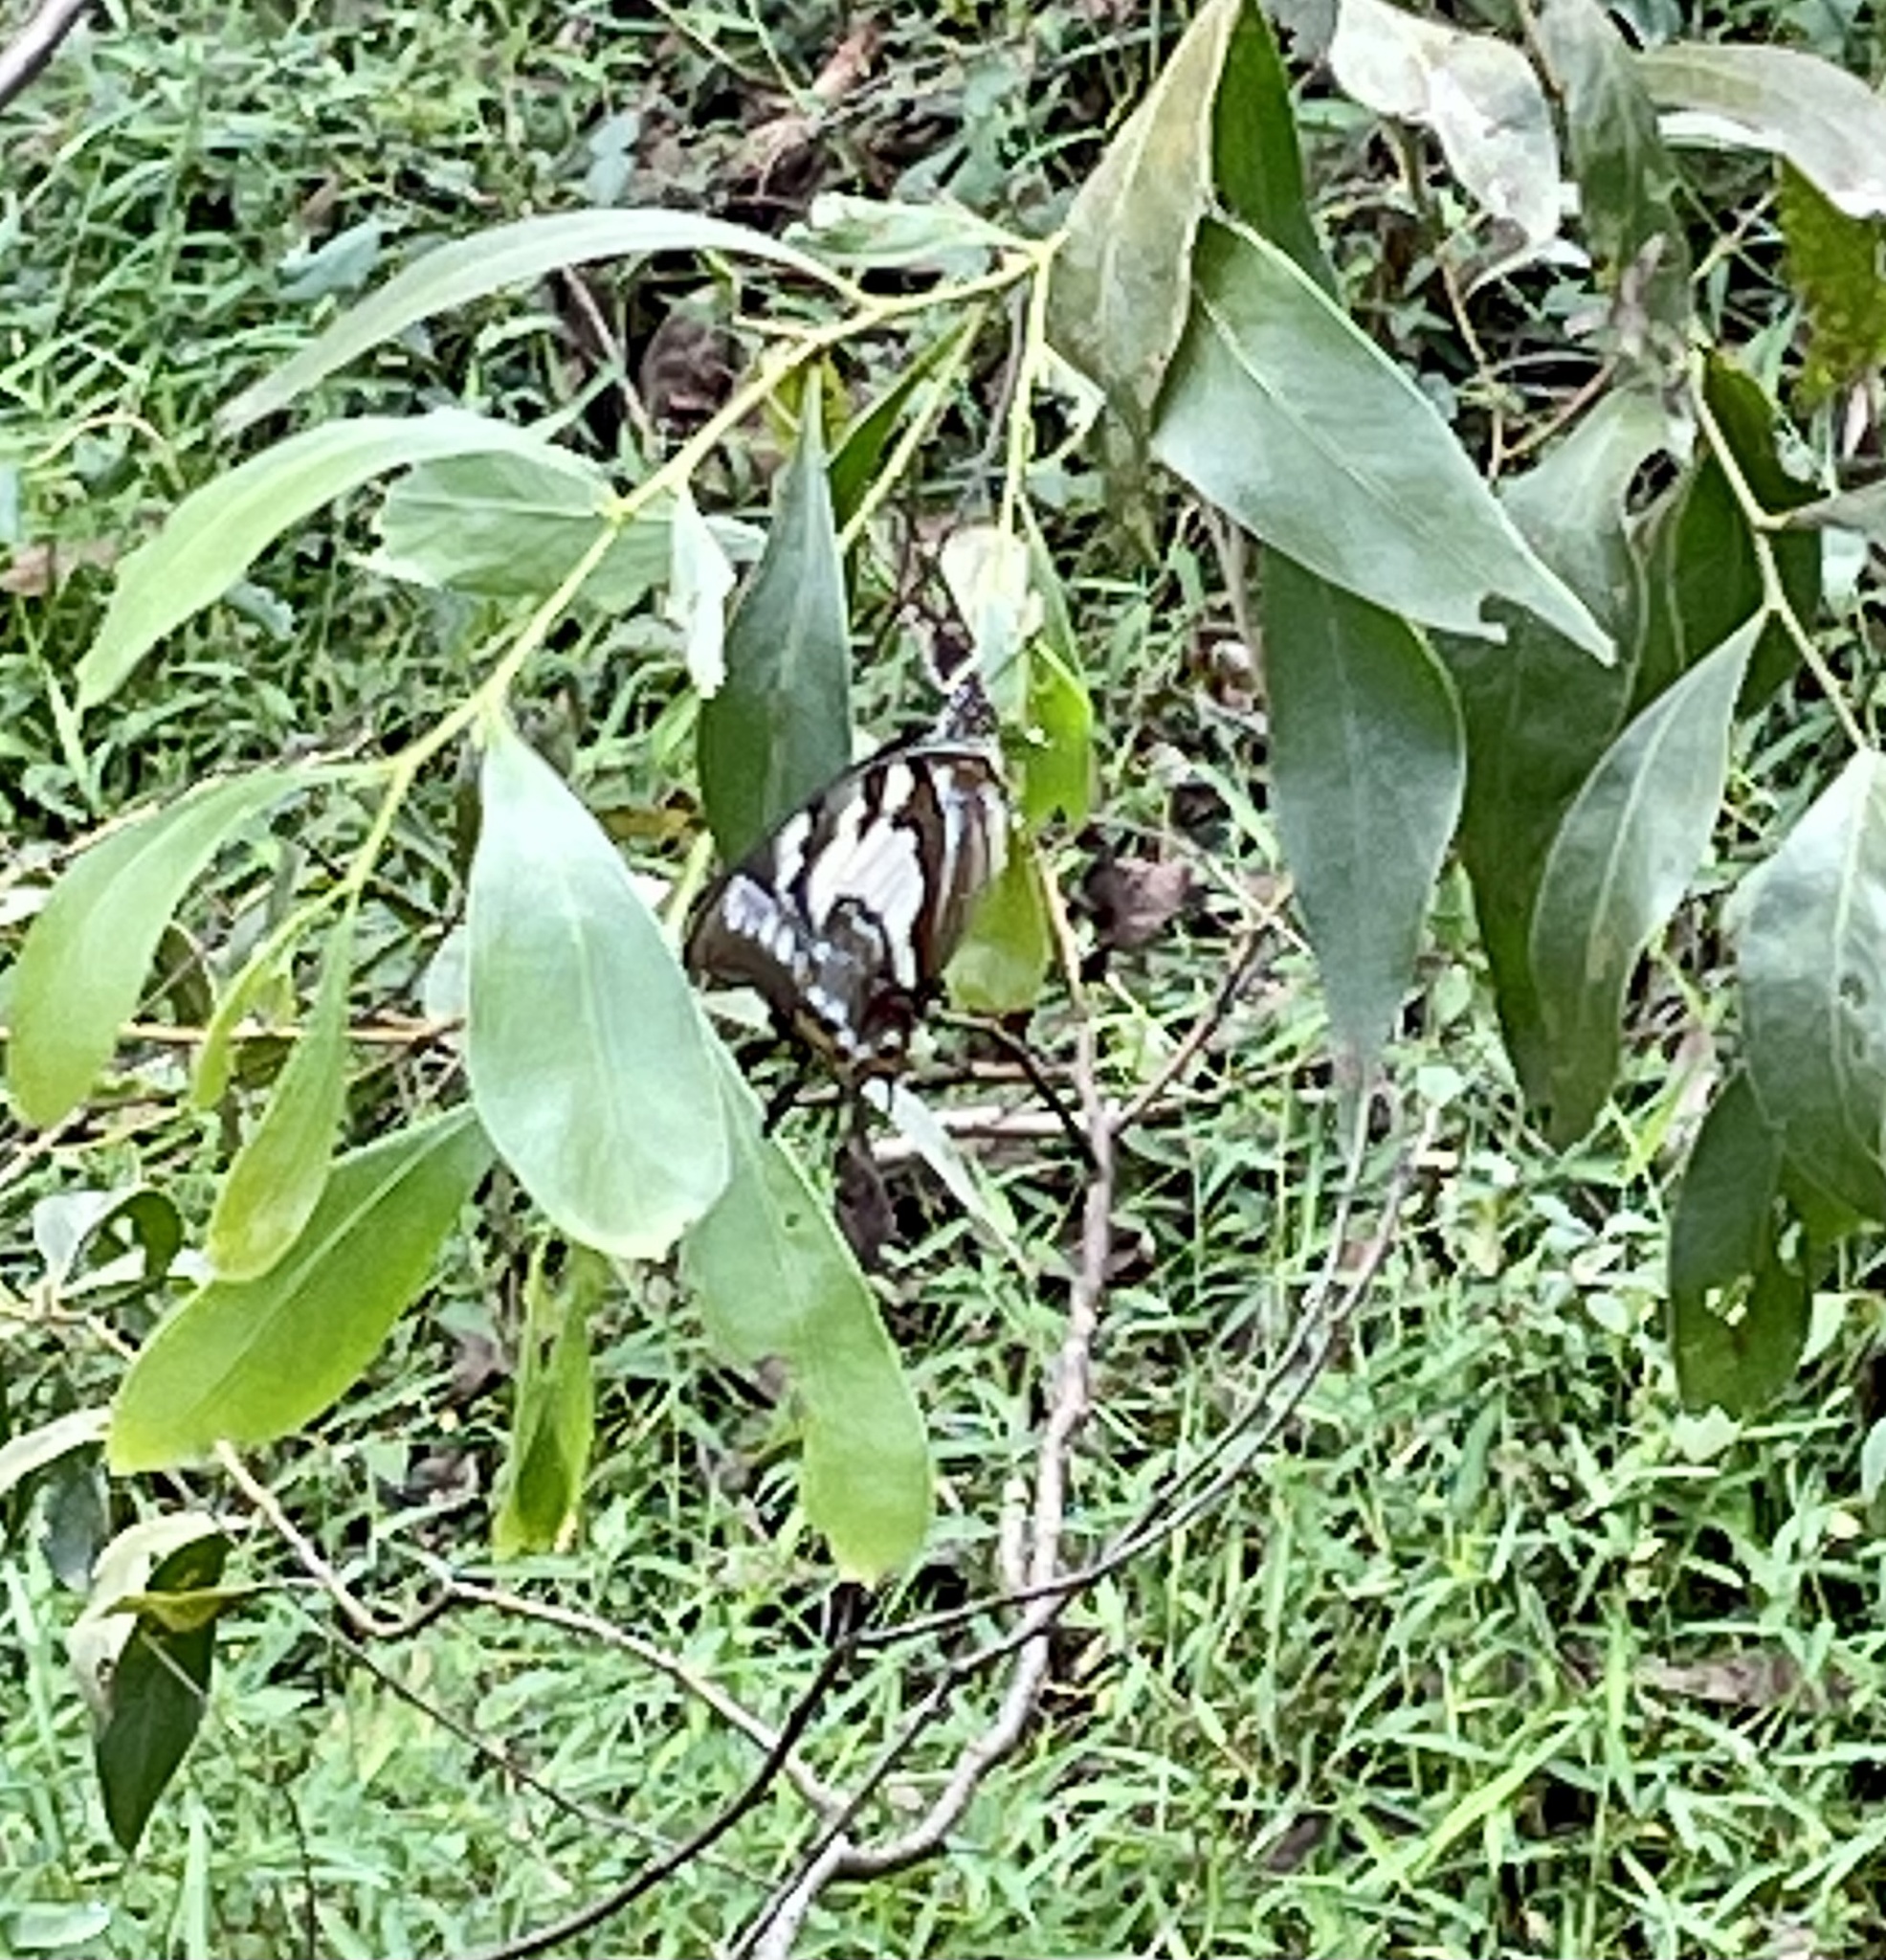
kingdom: Animalia
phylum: Arthropoda
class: Insecta
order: Lepidoptera
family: Nymphalidae
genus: Charaxes
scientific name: Charaxes
